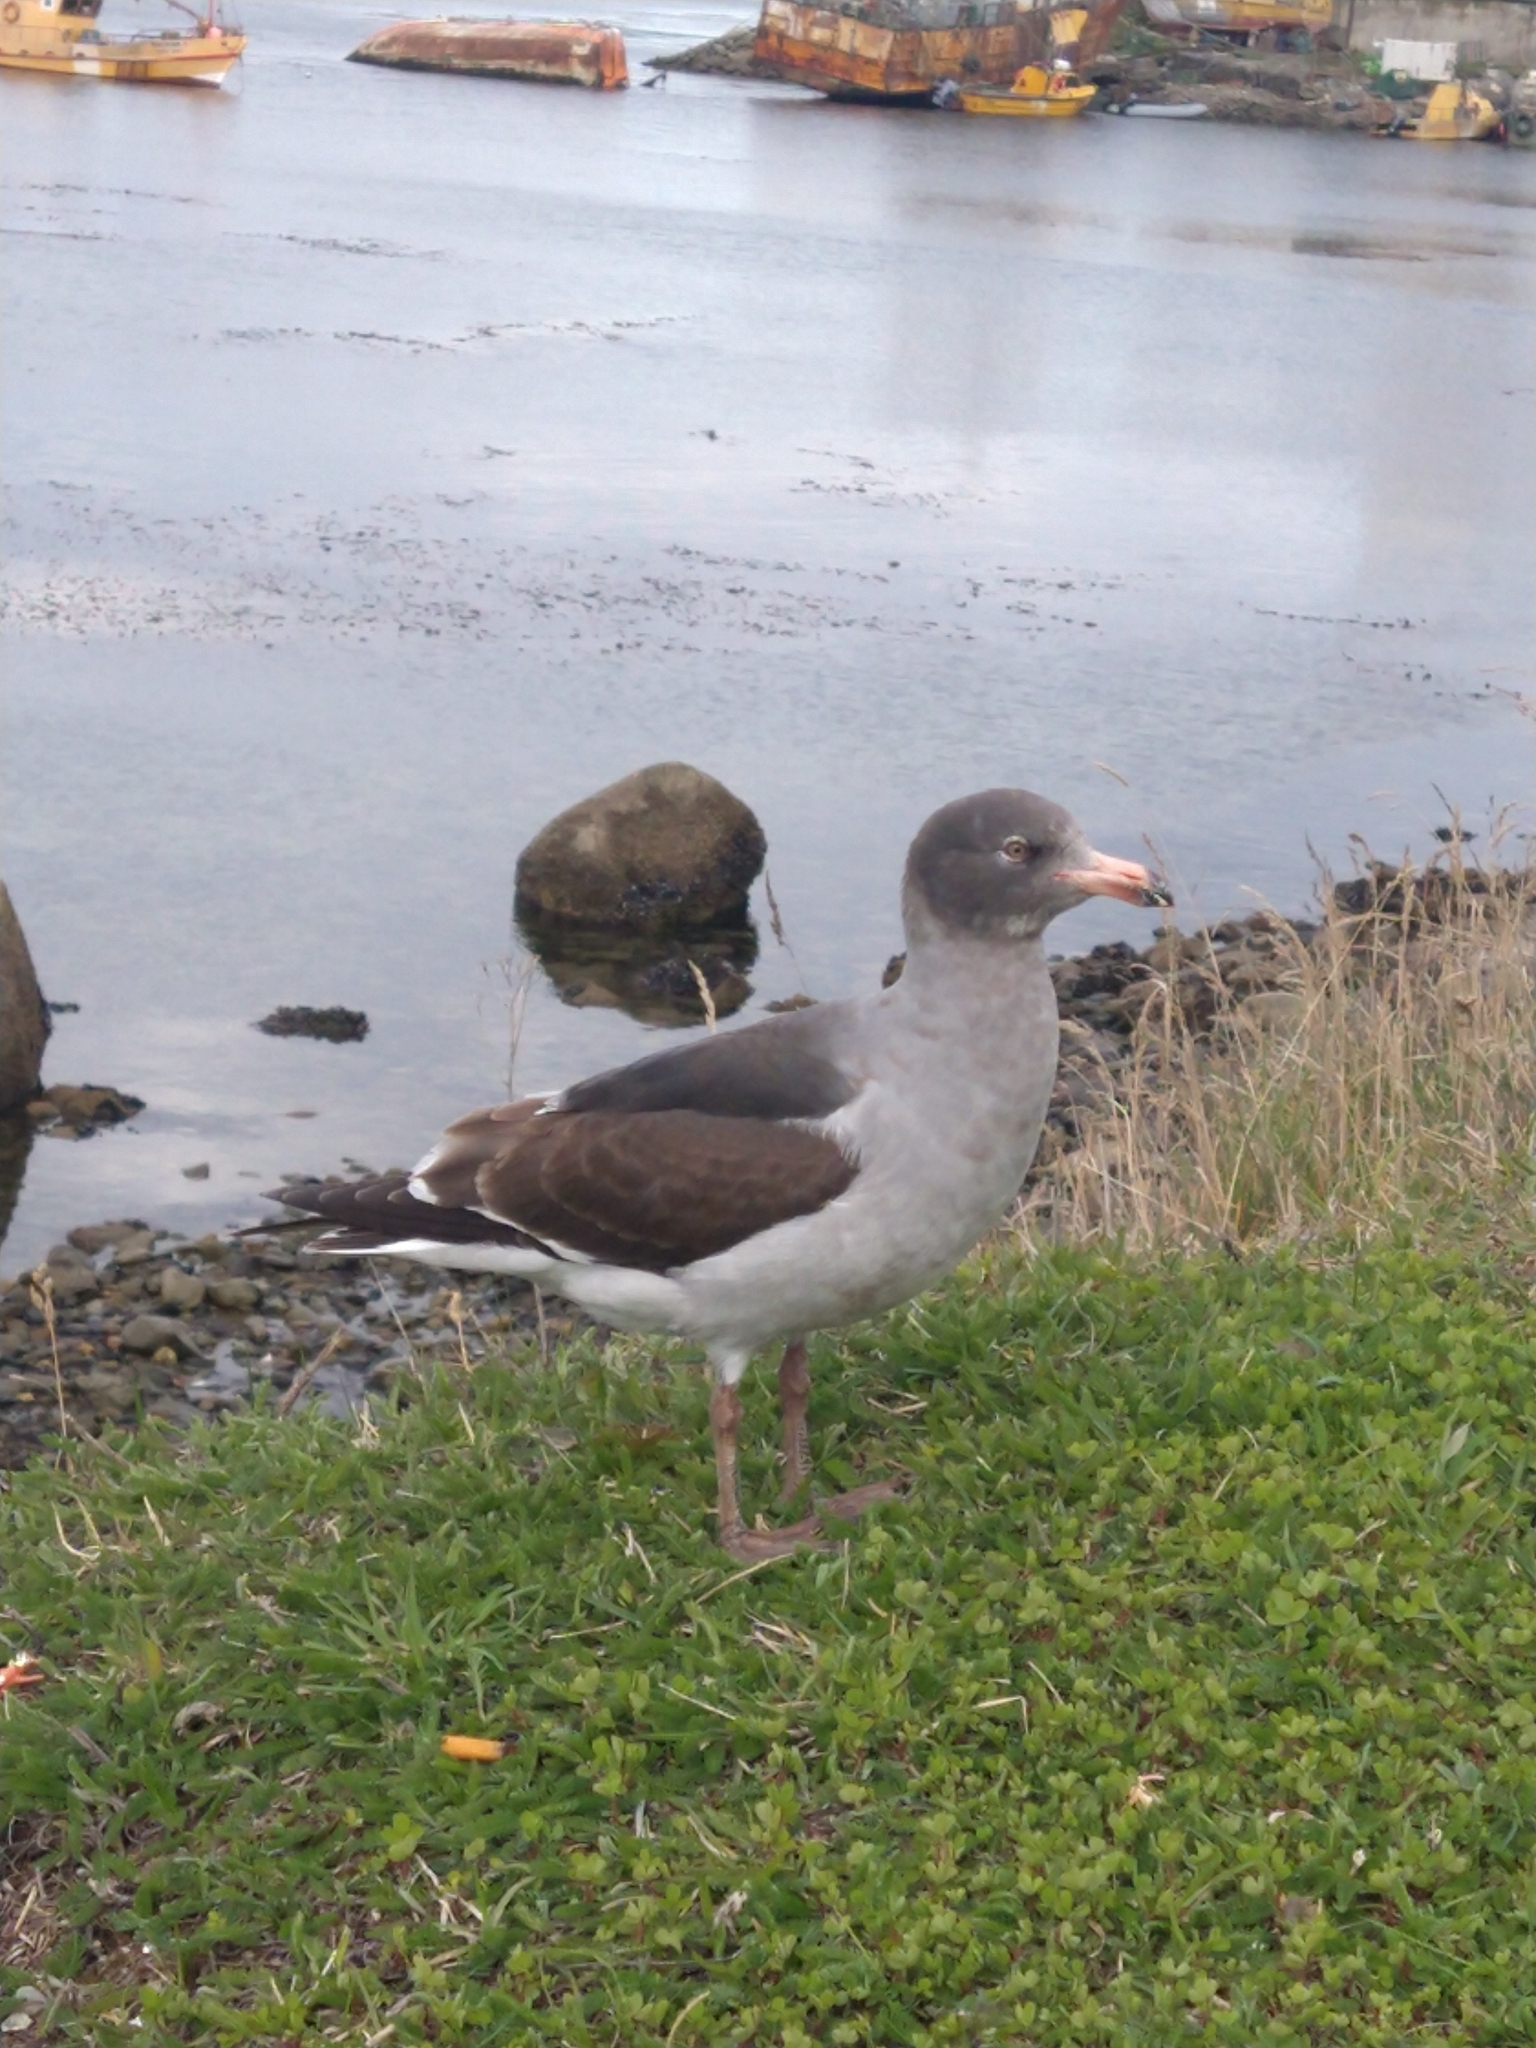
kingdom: Animalia
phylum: Chordata
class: Aves
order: Charadriiformes
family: Laridae
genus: Leucophaeus
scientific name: Leucophaeus scoresbii
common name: Dolphin gull
